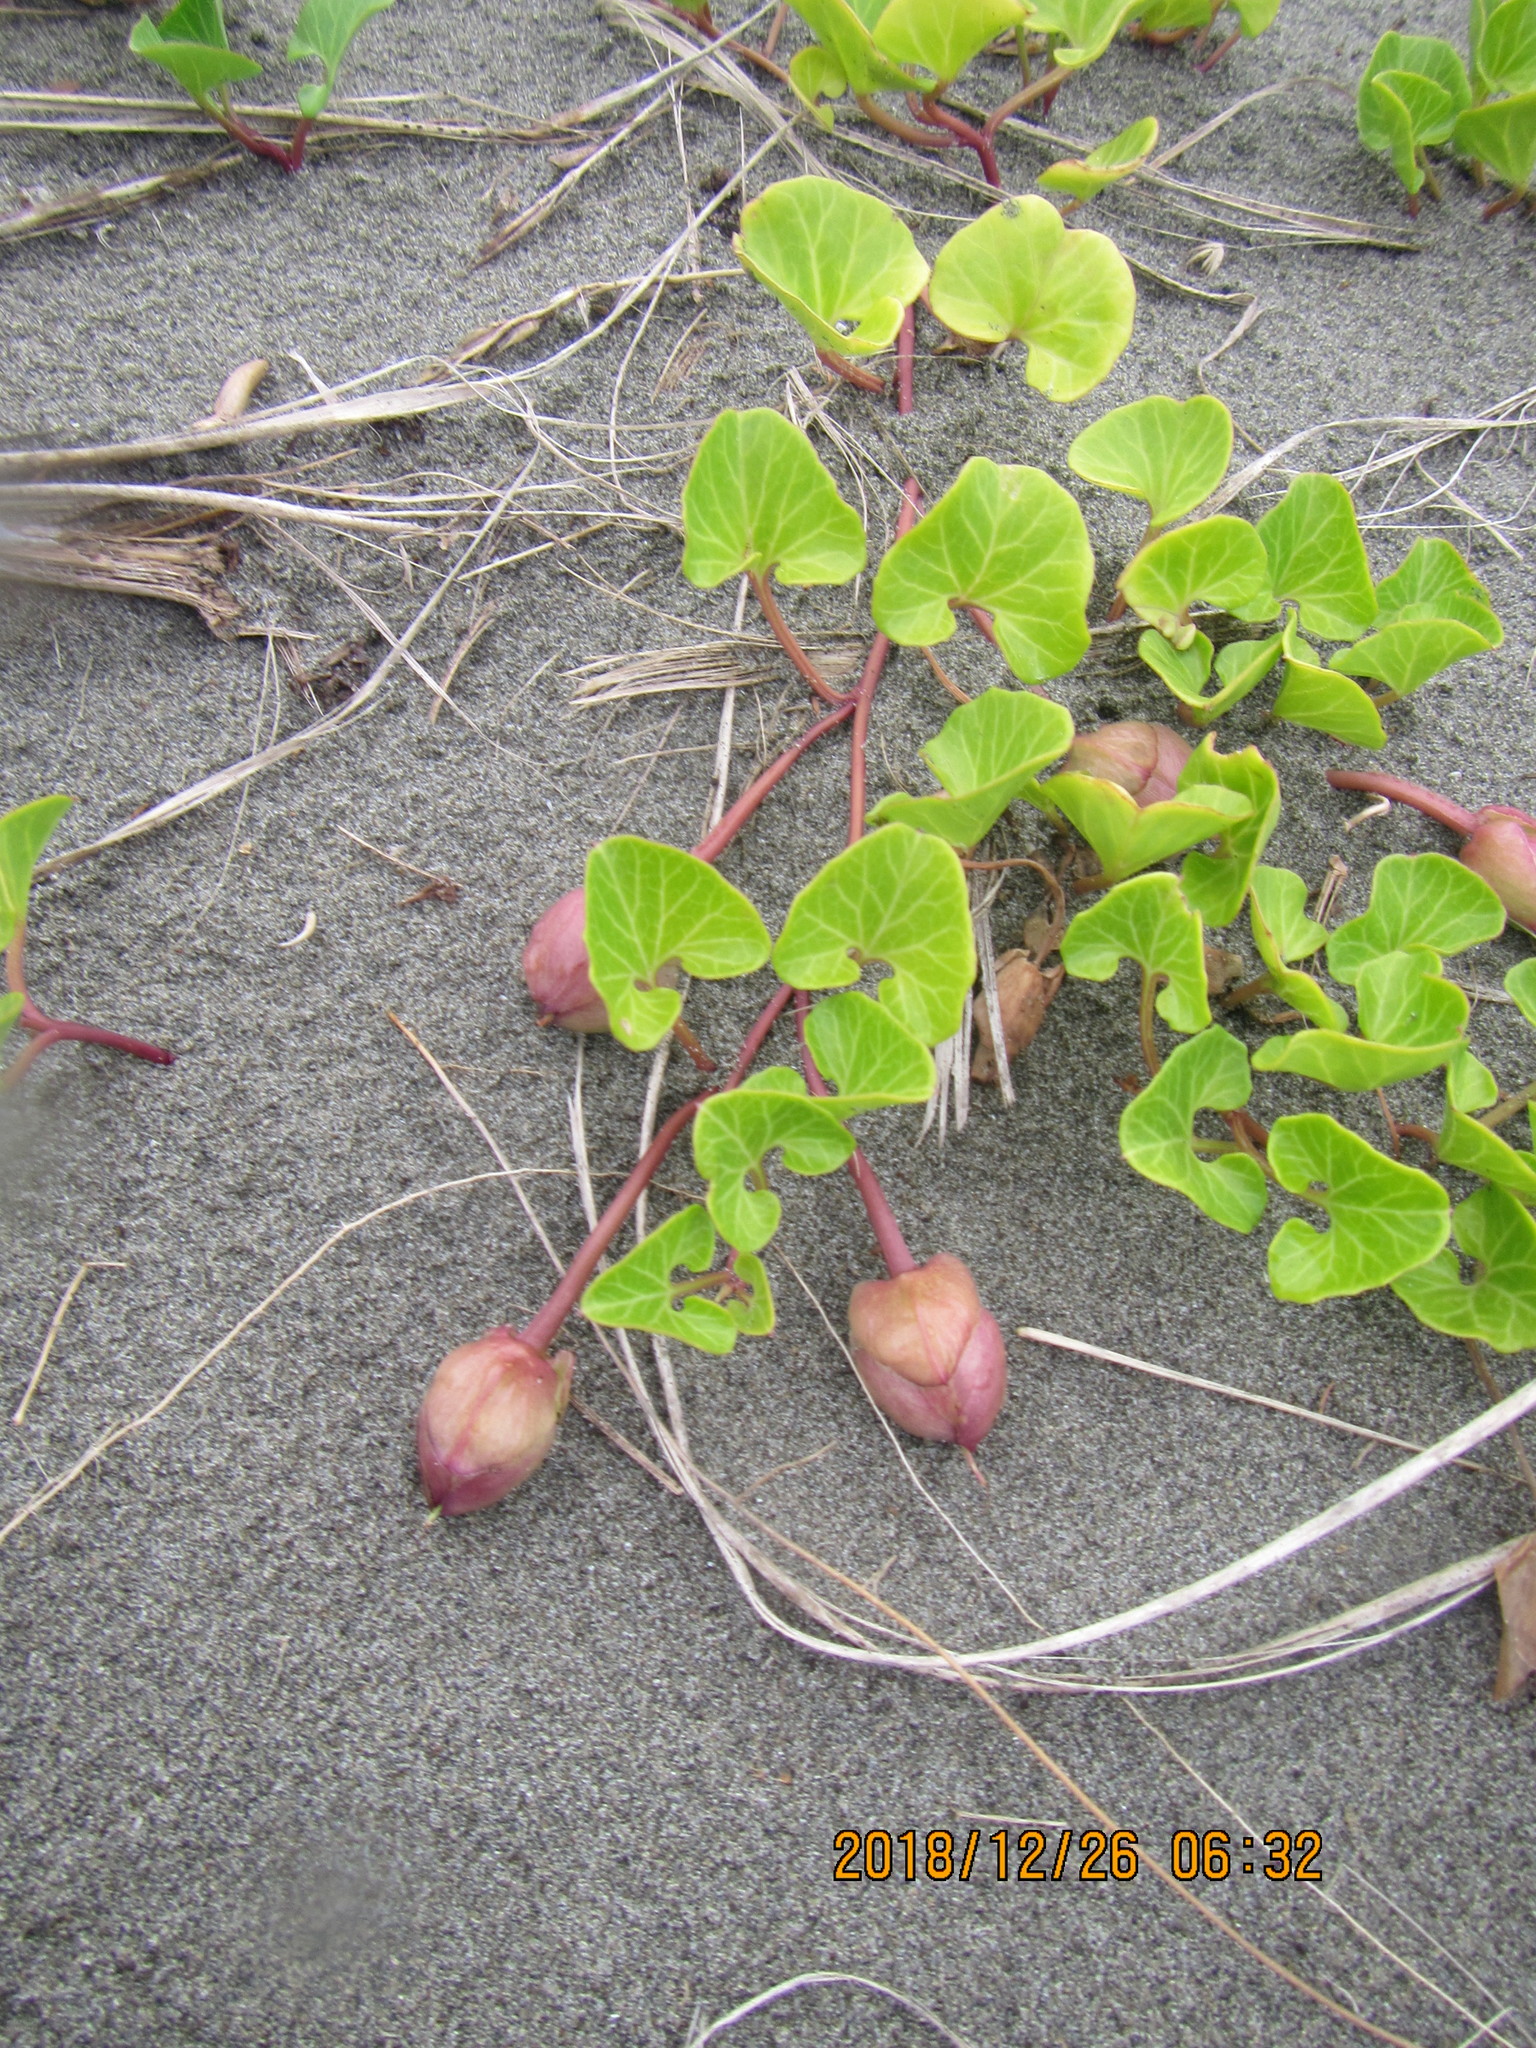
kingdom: Plantae
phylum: Tracheophyta
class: Magnoliopsida
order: Solanales
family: Convolvulaceae
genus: Calystegia
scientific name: Calystegia soldanella
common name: Sea bindweed
